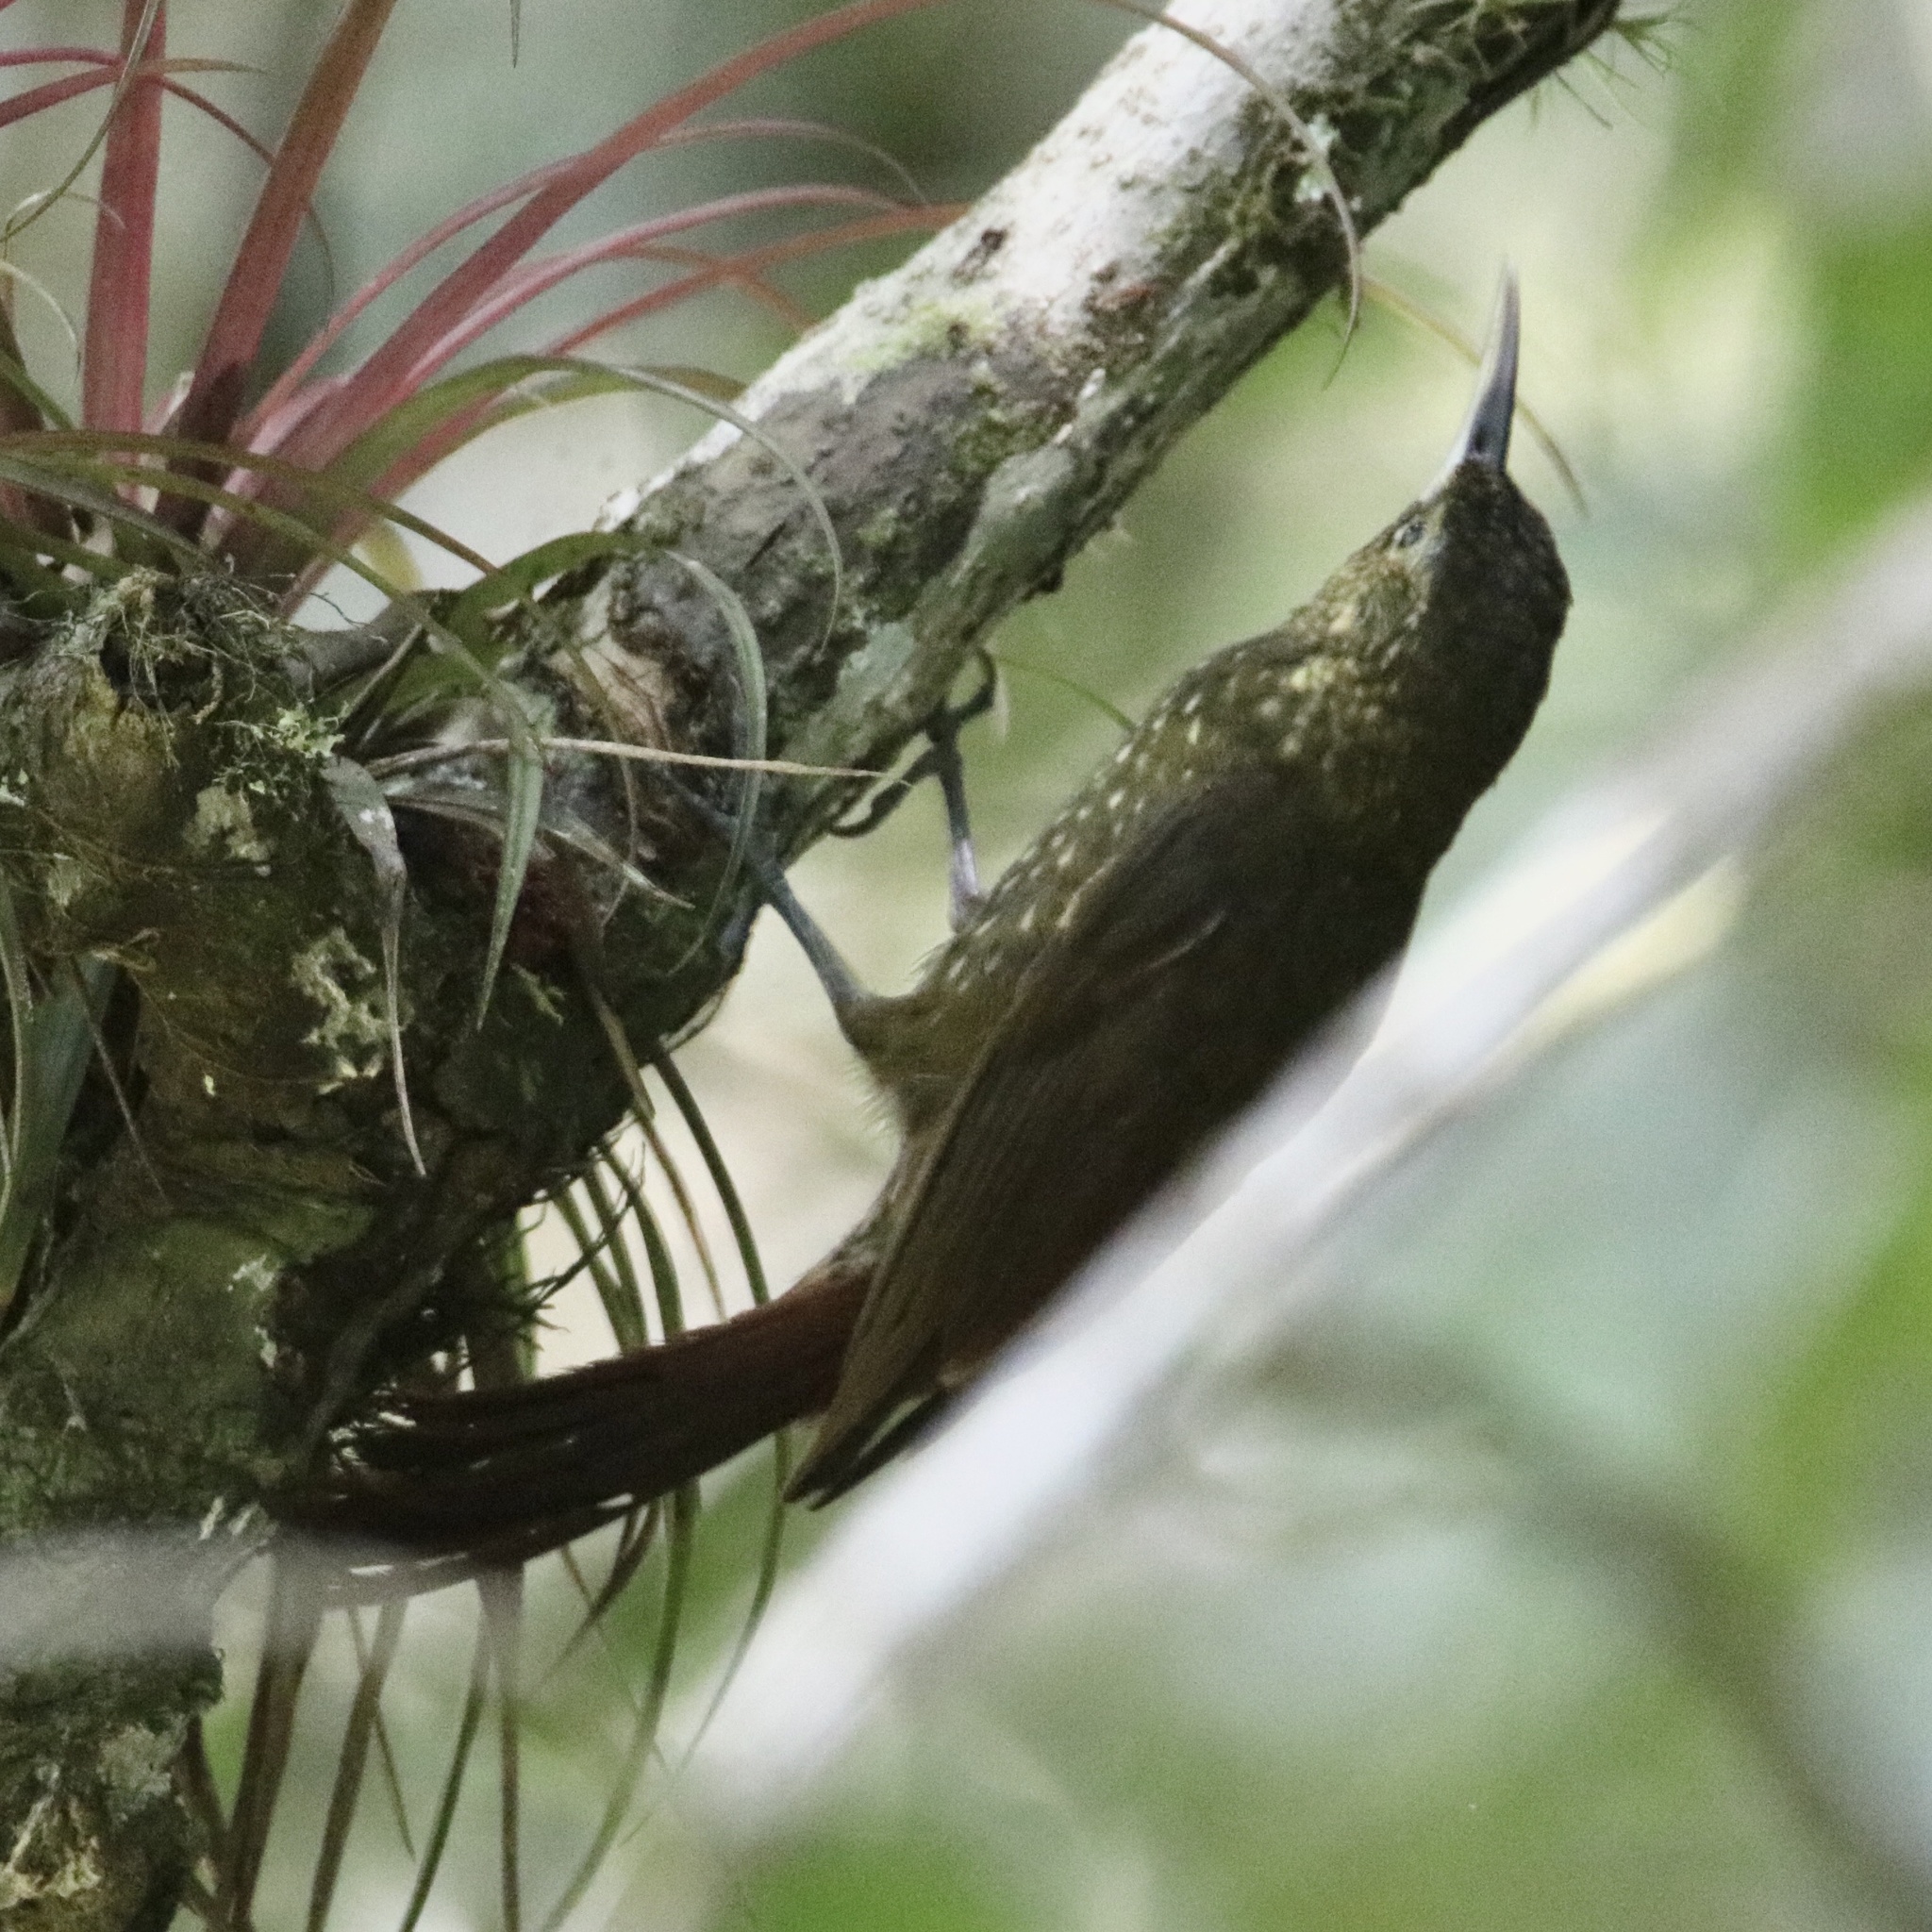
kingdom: Animalia
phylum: Chordata
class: Aves
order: Passeriformes
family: Furnariidae
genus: Xiphorhynchus
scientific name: Xiphorhynchus erythropygius
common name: Spotted woodcreeper
